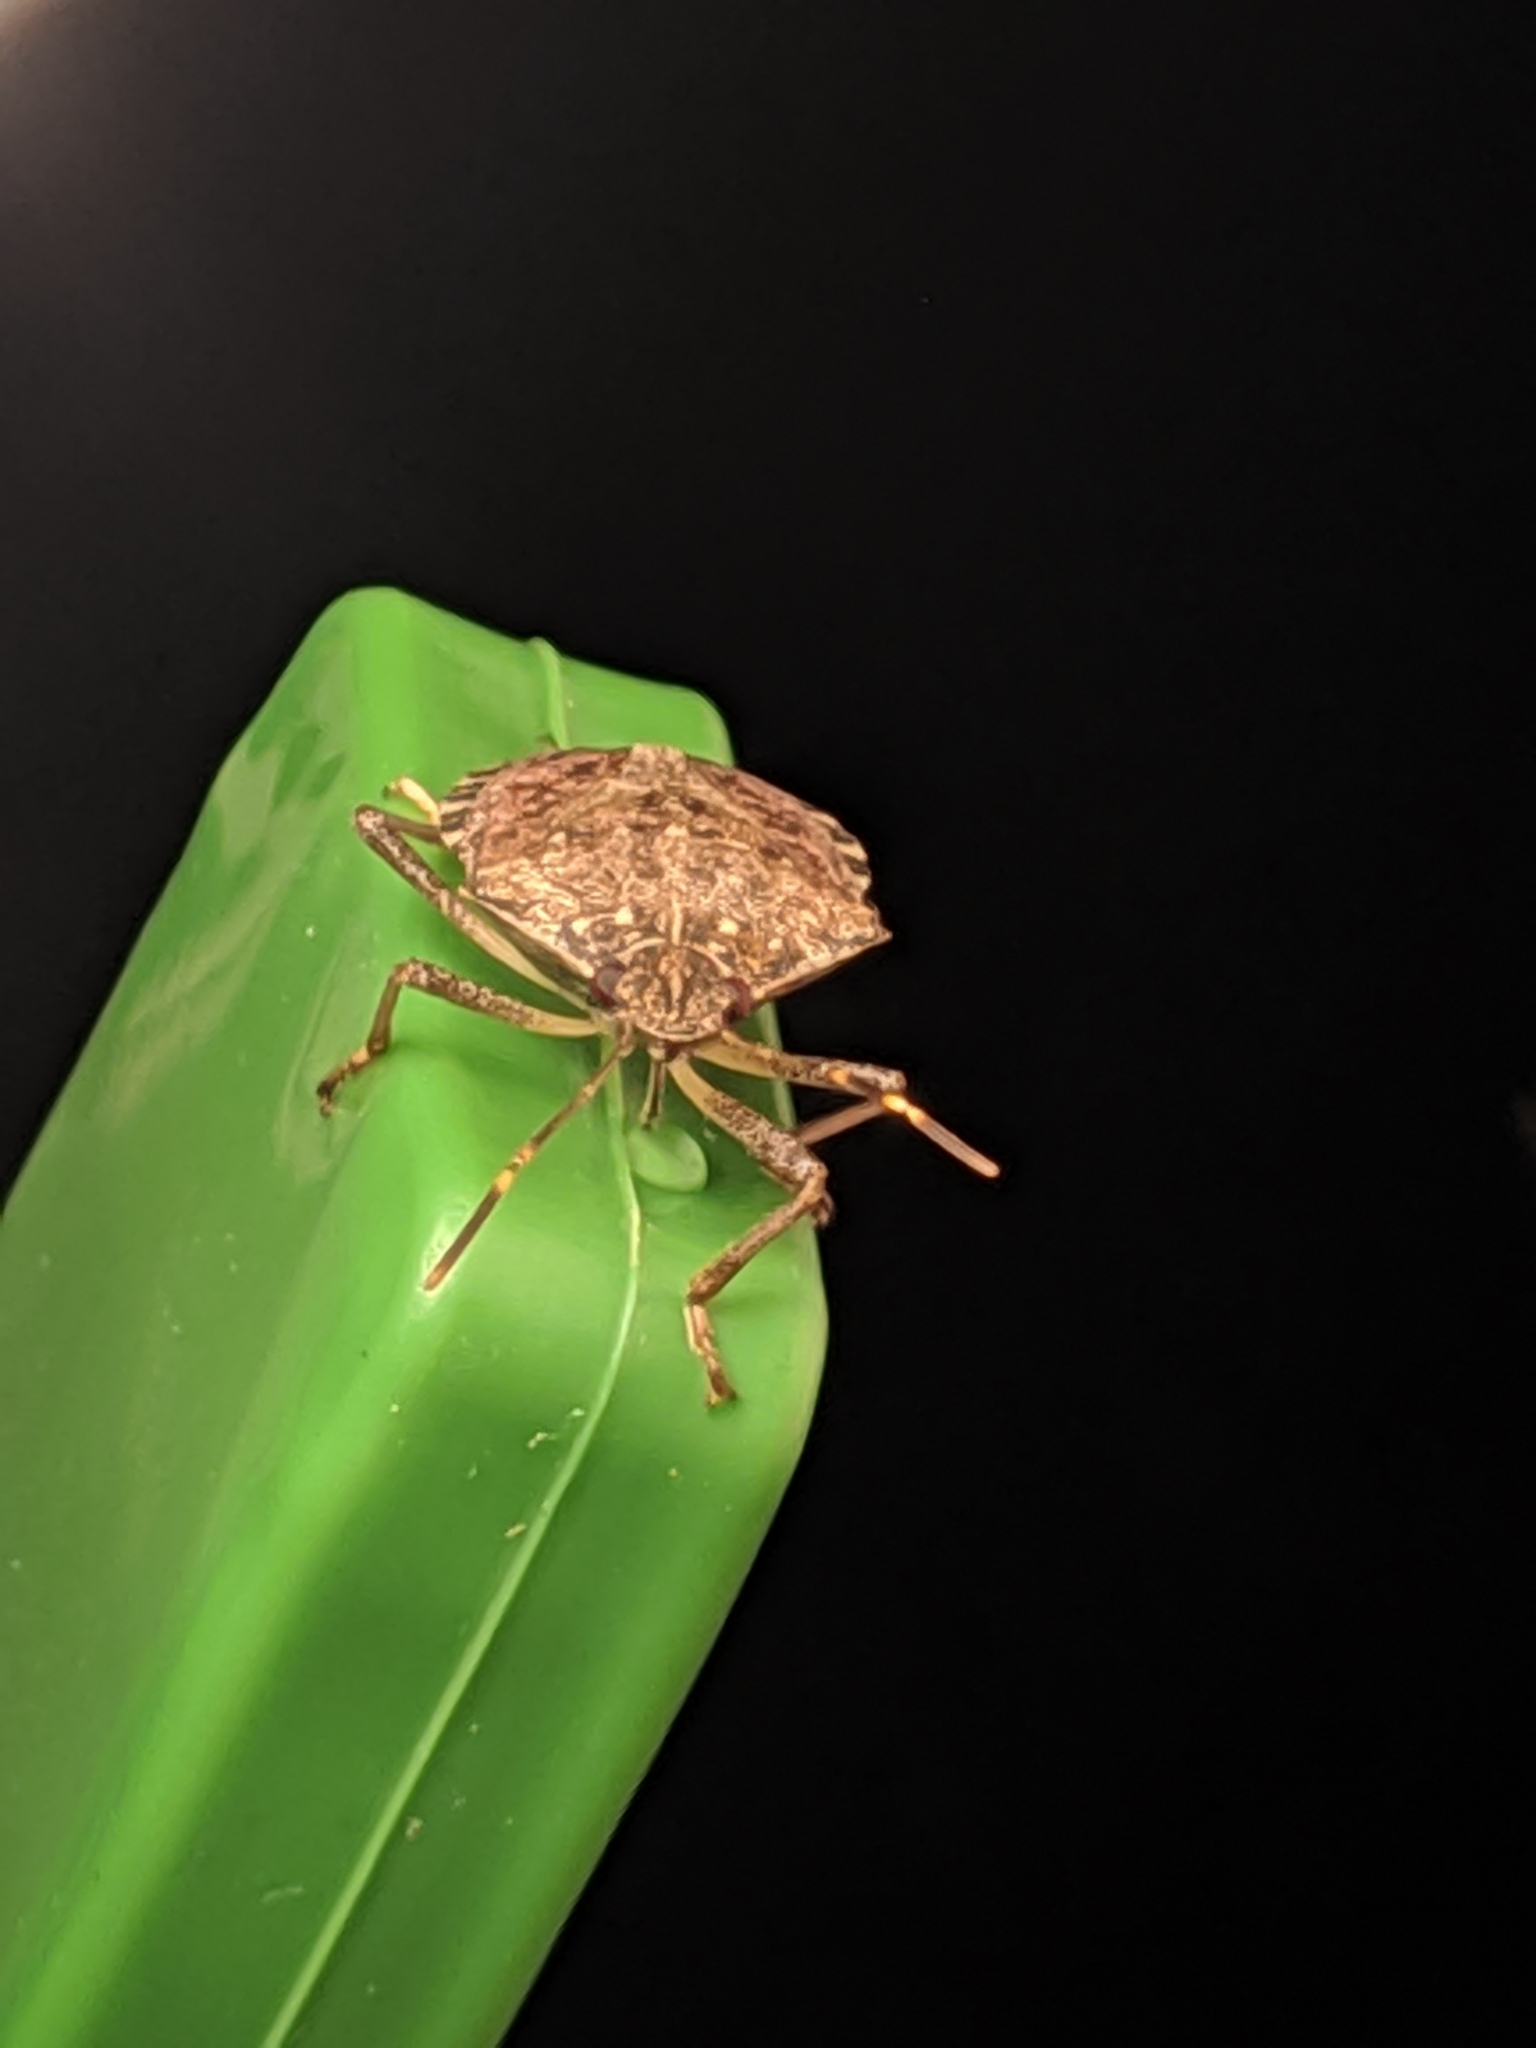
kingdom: Animalia
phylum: Arthropoda
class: Insecta
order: Hemiptera
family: Pentatomidae
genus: Halyomorpha
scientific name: Halyomorpha halys
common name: Brown marmorated stink bug
